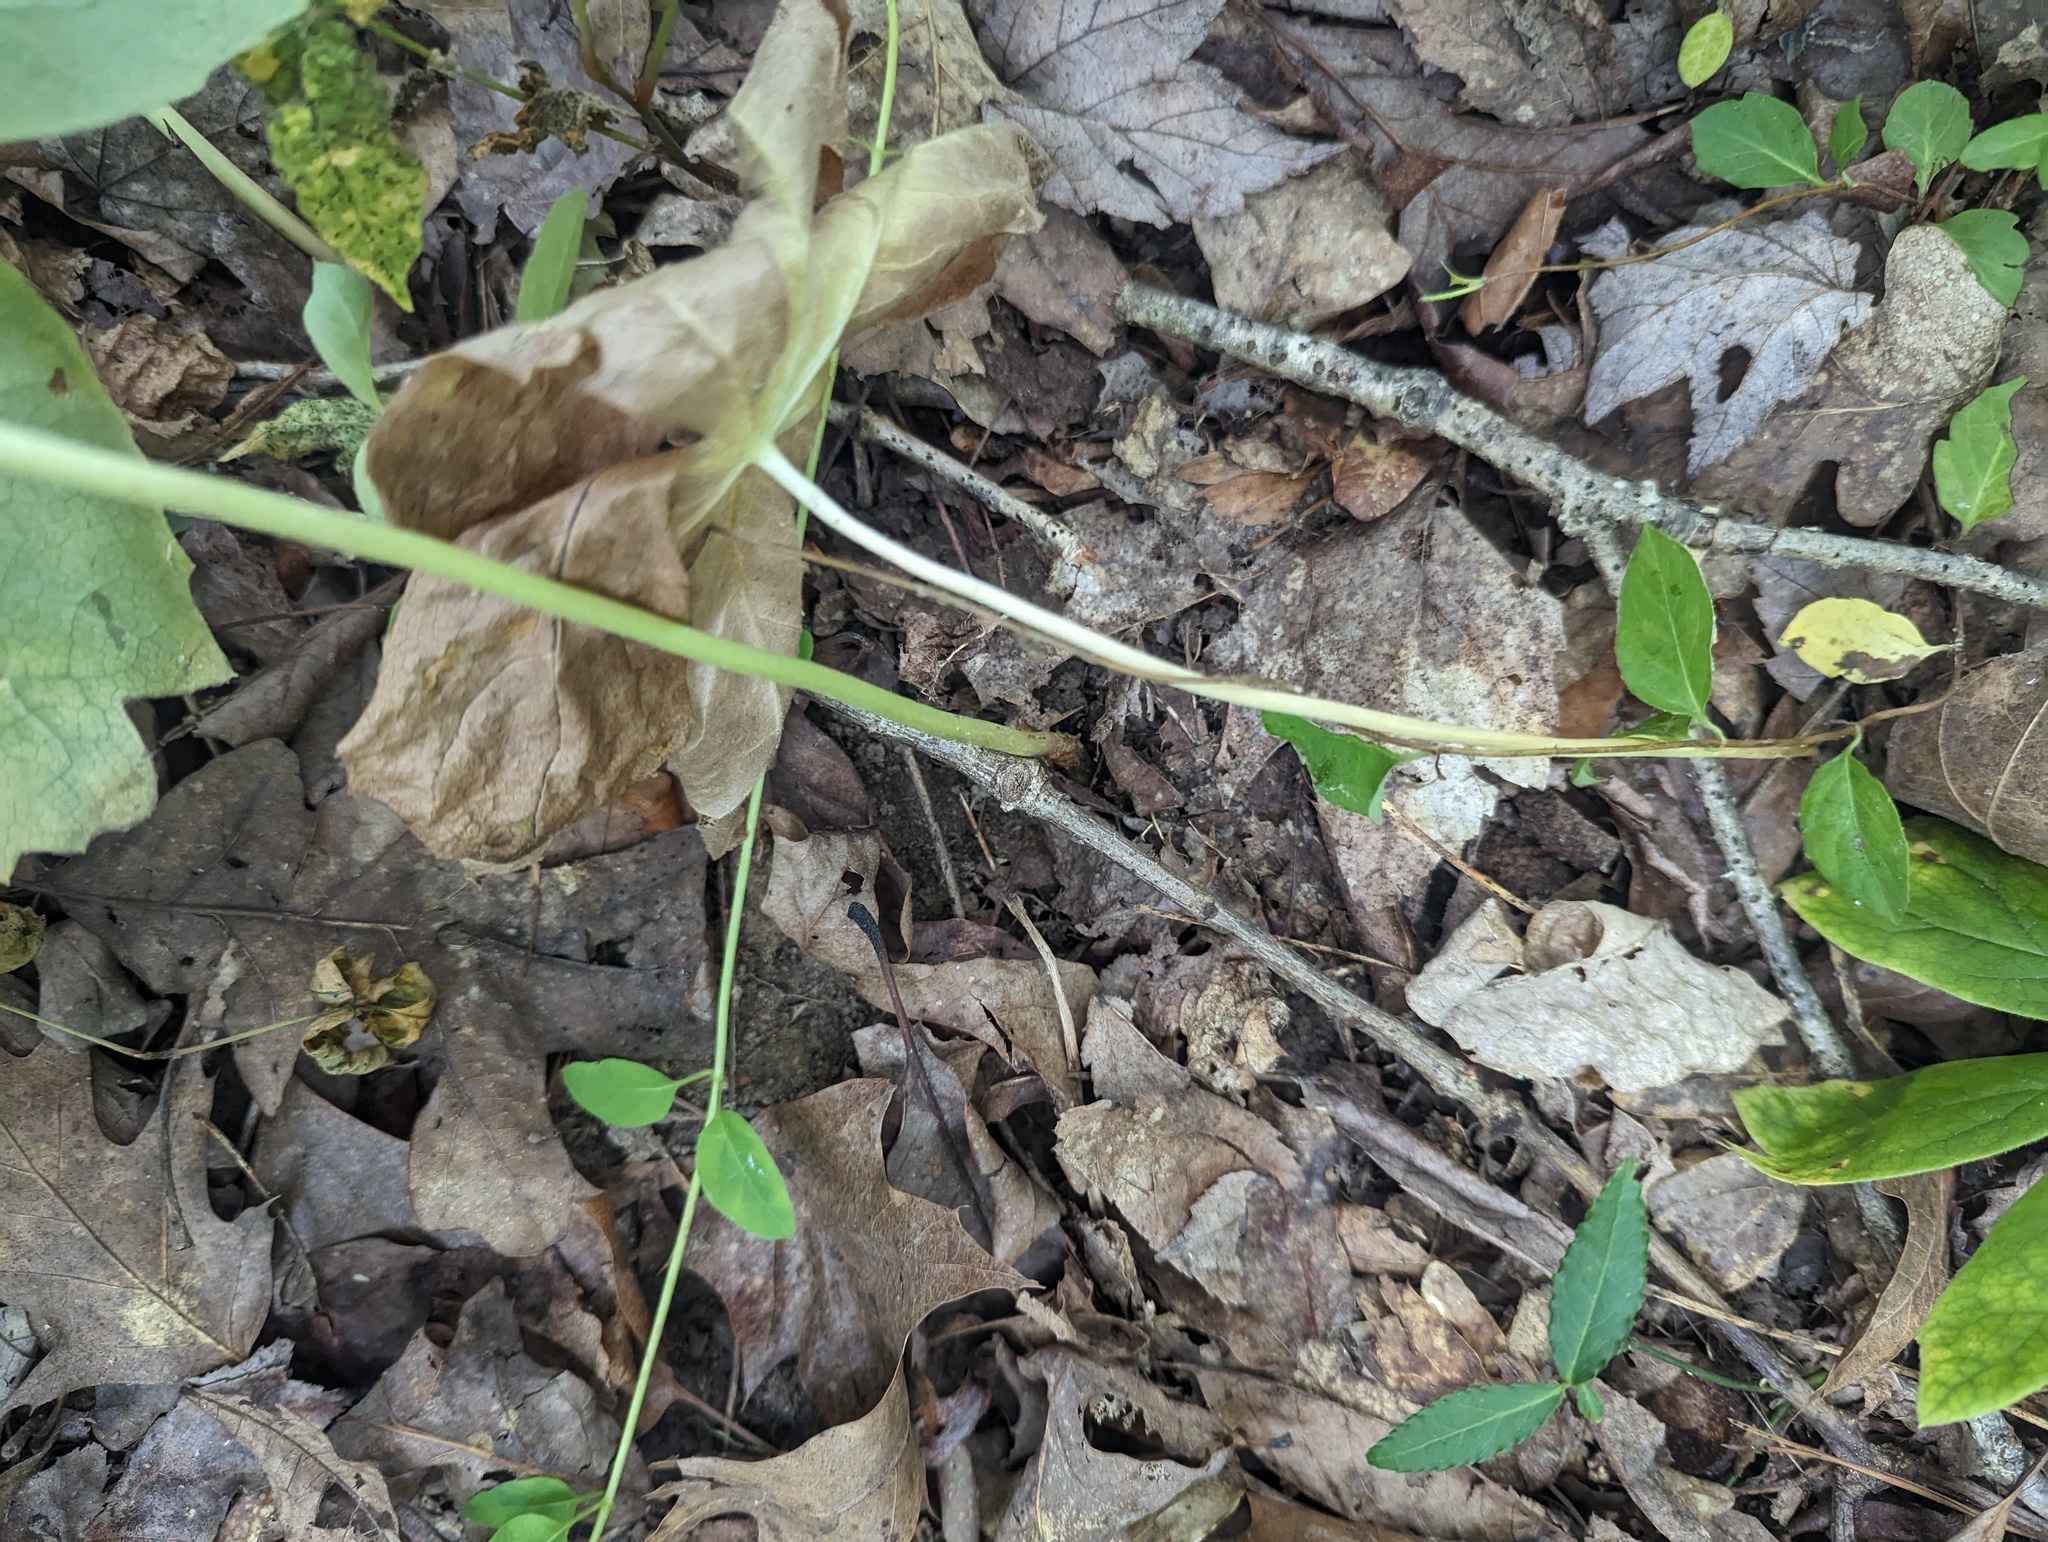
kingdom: Plantae
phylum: Tracheophyta
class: Magnoliopsida
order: Ranunculales
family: Berberidaceae
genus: Podophyllum
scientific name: Podophyllum peltatum
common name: Wild mandrake
